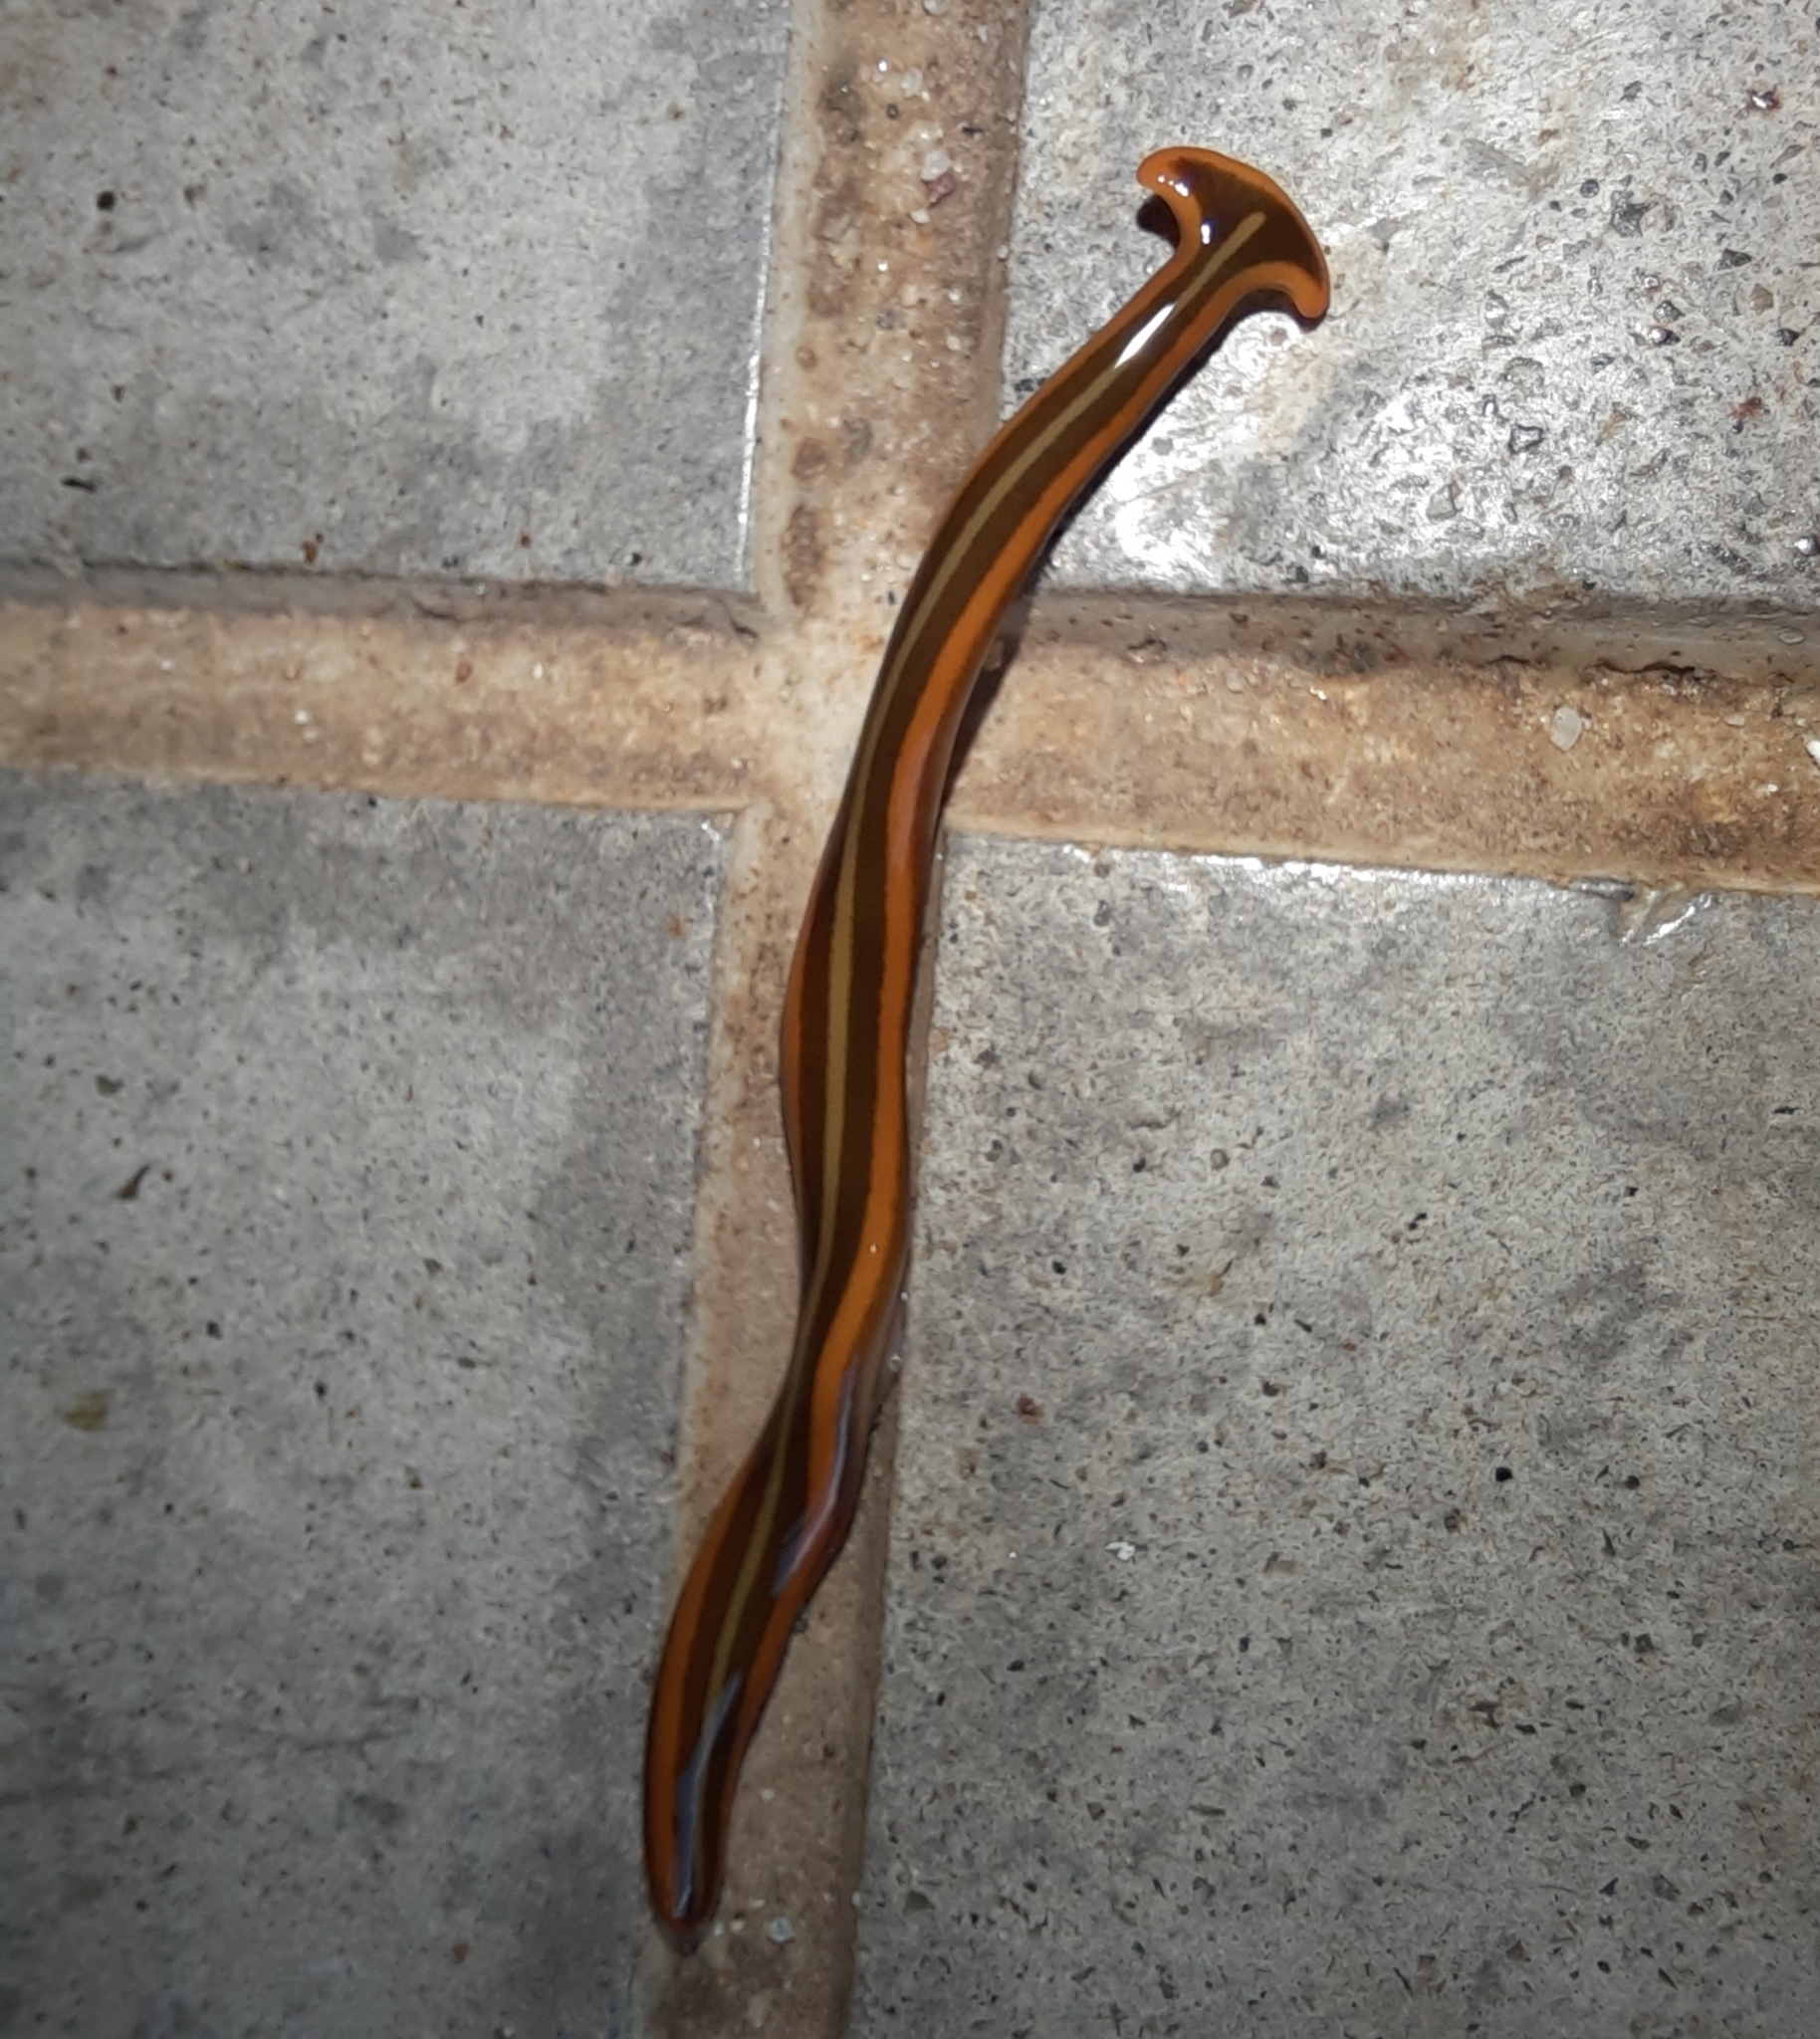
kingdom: Animalia
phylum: Platyhelminthes
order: Tricladida
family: Geoplanidae
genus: Humbertium
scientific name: Humbertium proserpina
